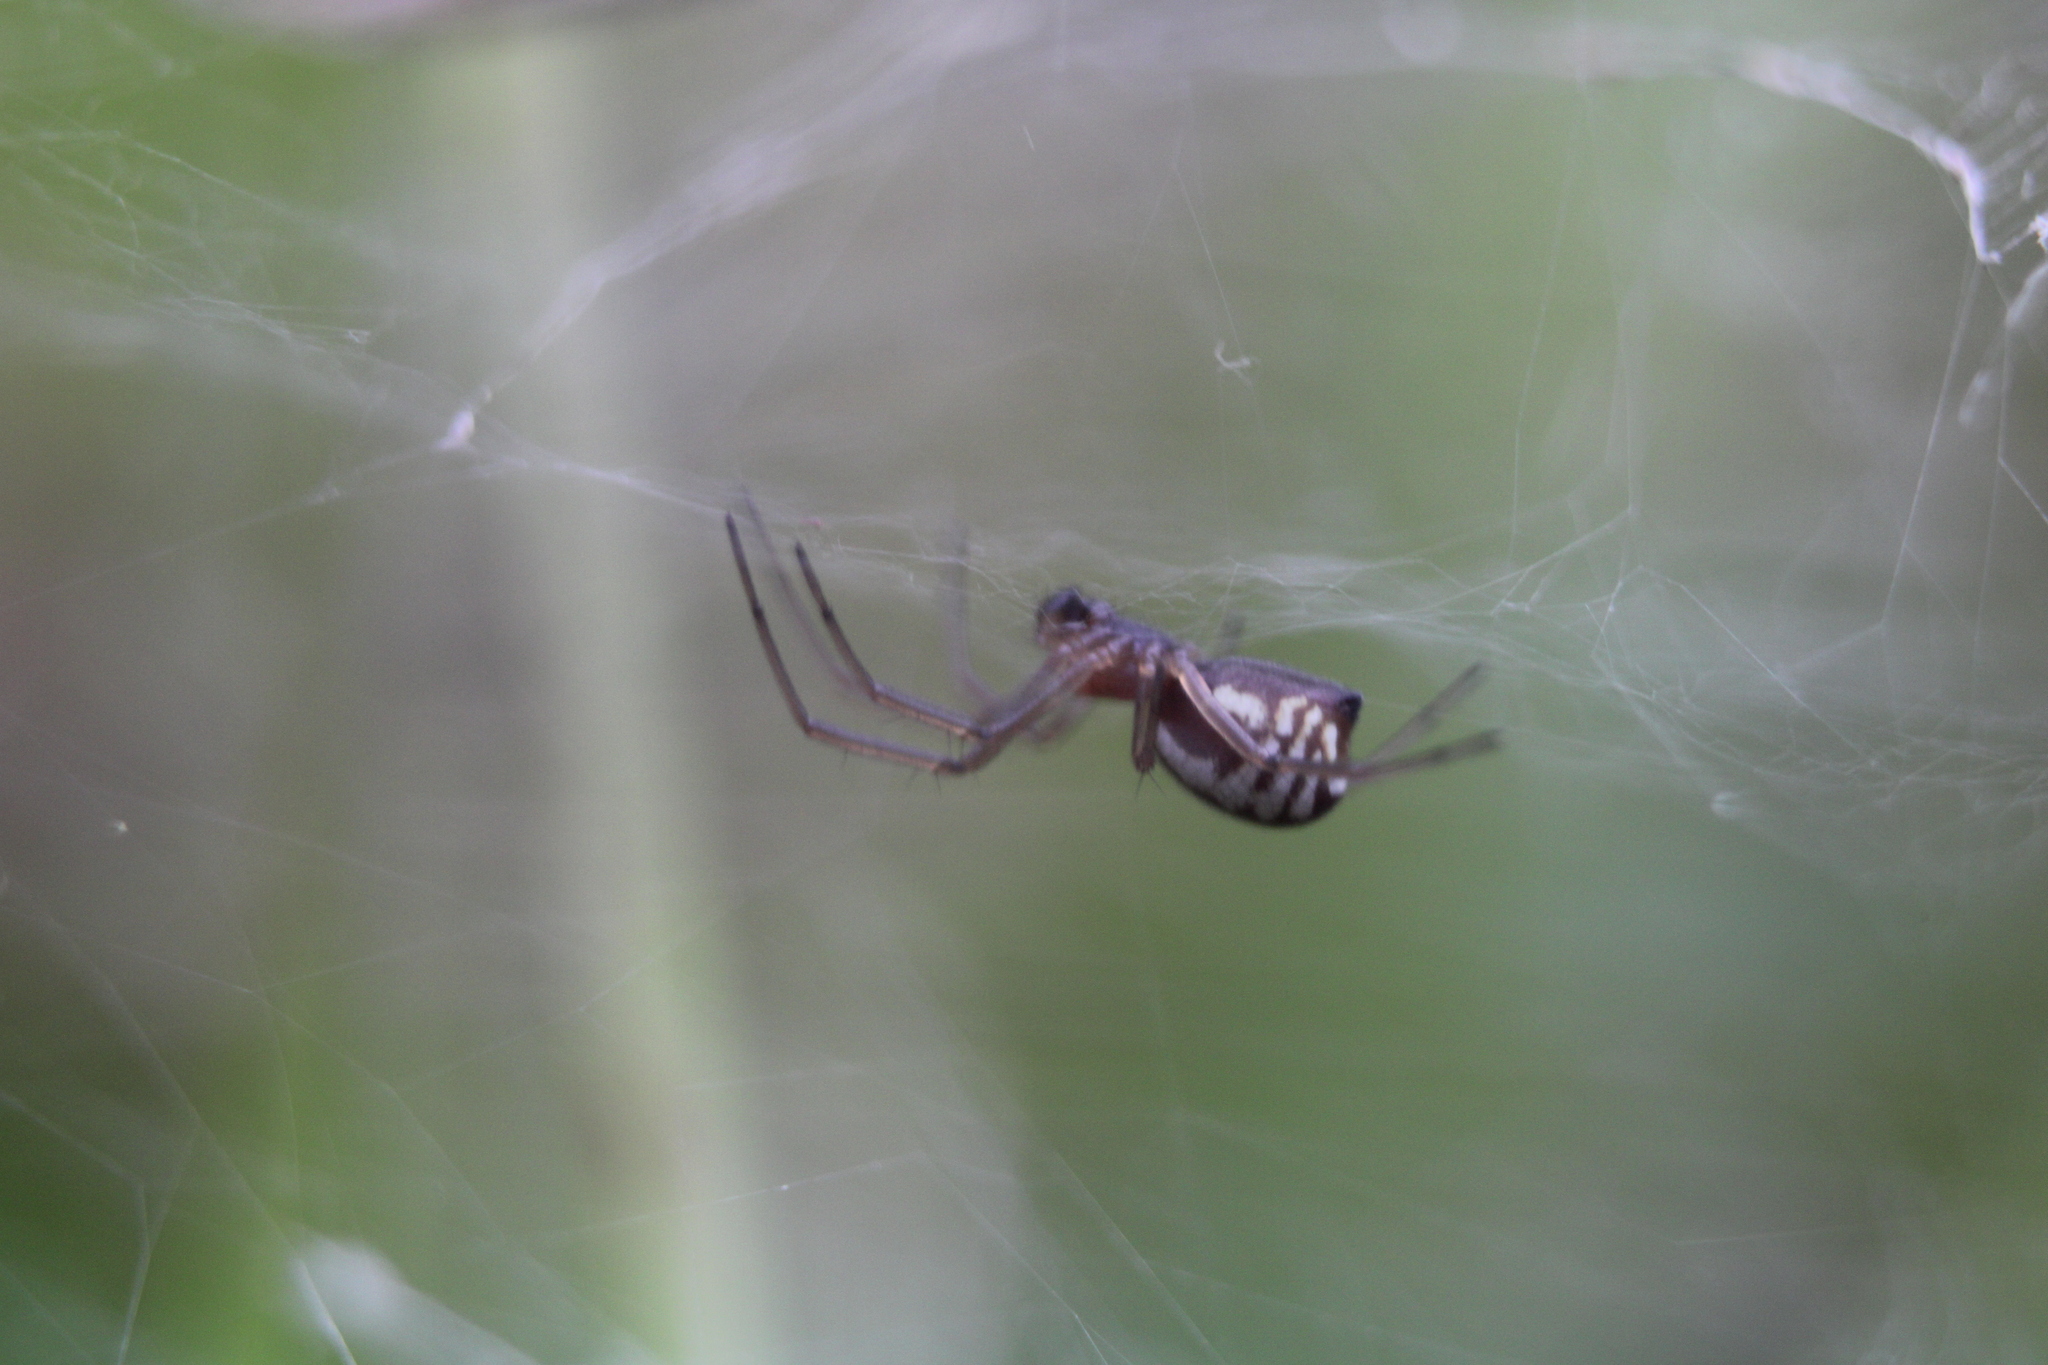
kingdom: Animalia
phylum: Arthropoda
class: Arachnida
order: Araneae
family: Linyphiidae
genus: Frontinella
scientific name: Frontinella pyramitela
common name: Bowl-and-doily spider
